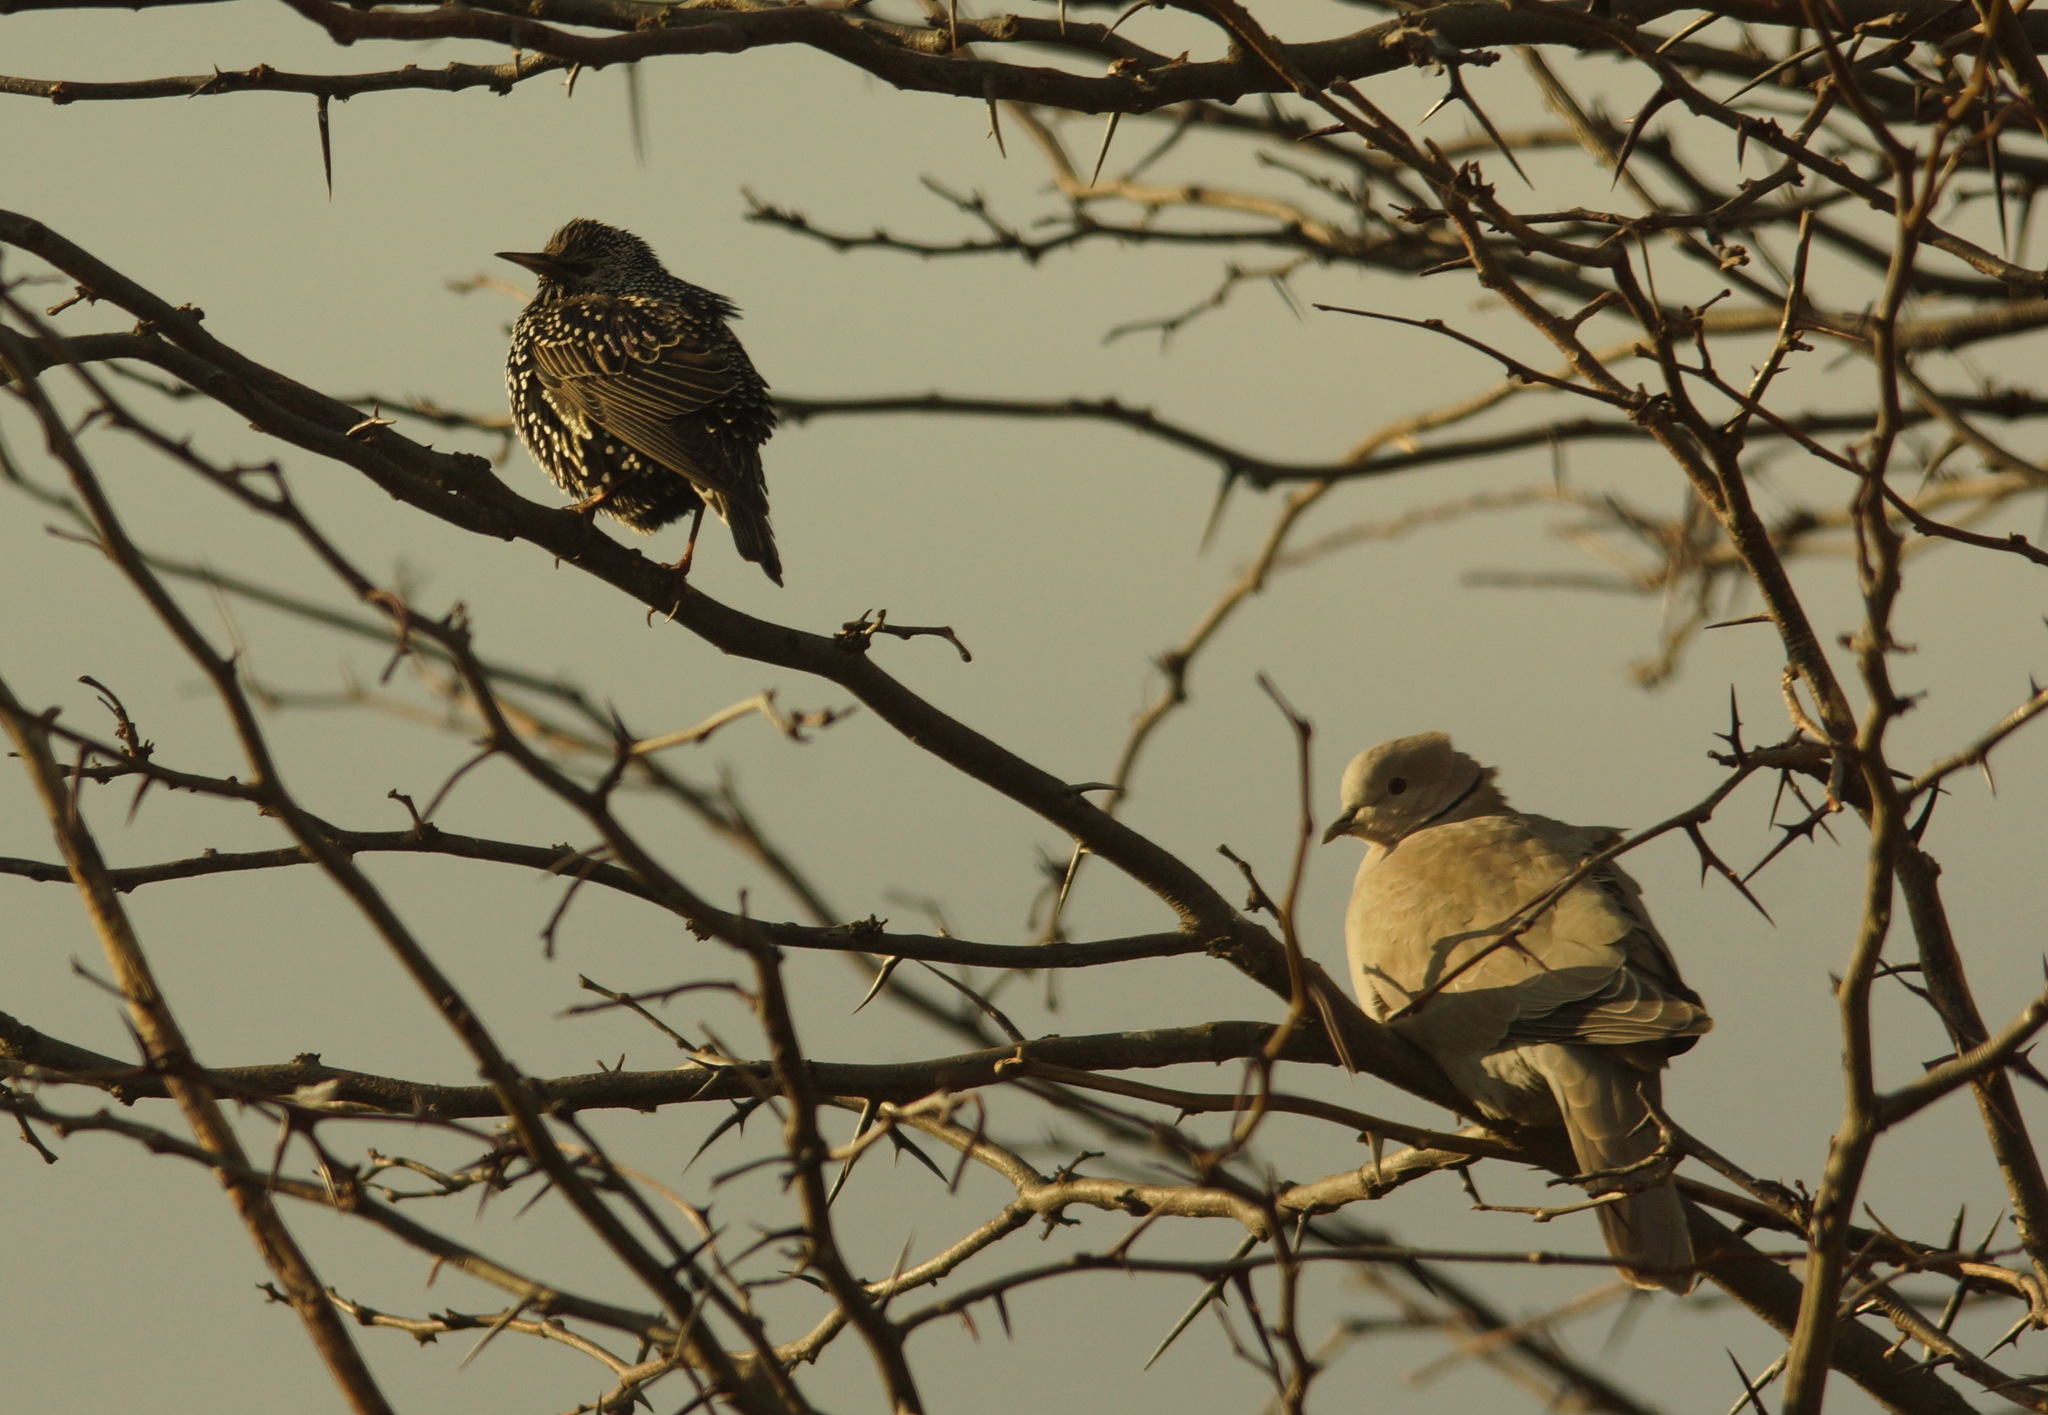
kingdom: Animalia
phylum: Chordata
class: Aves
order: Passeriformes
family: Sturnidae
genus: Sturnus
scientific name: Sturnus vulgaris
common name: Common starling
